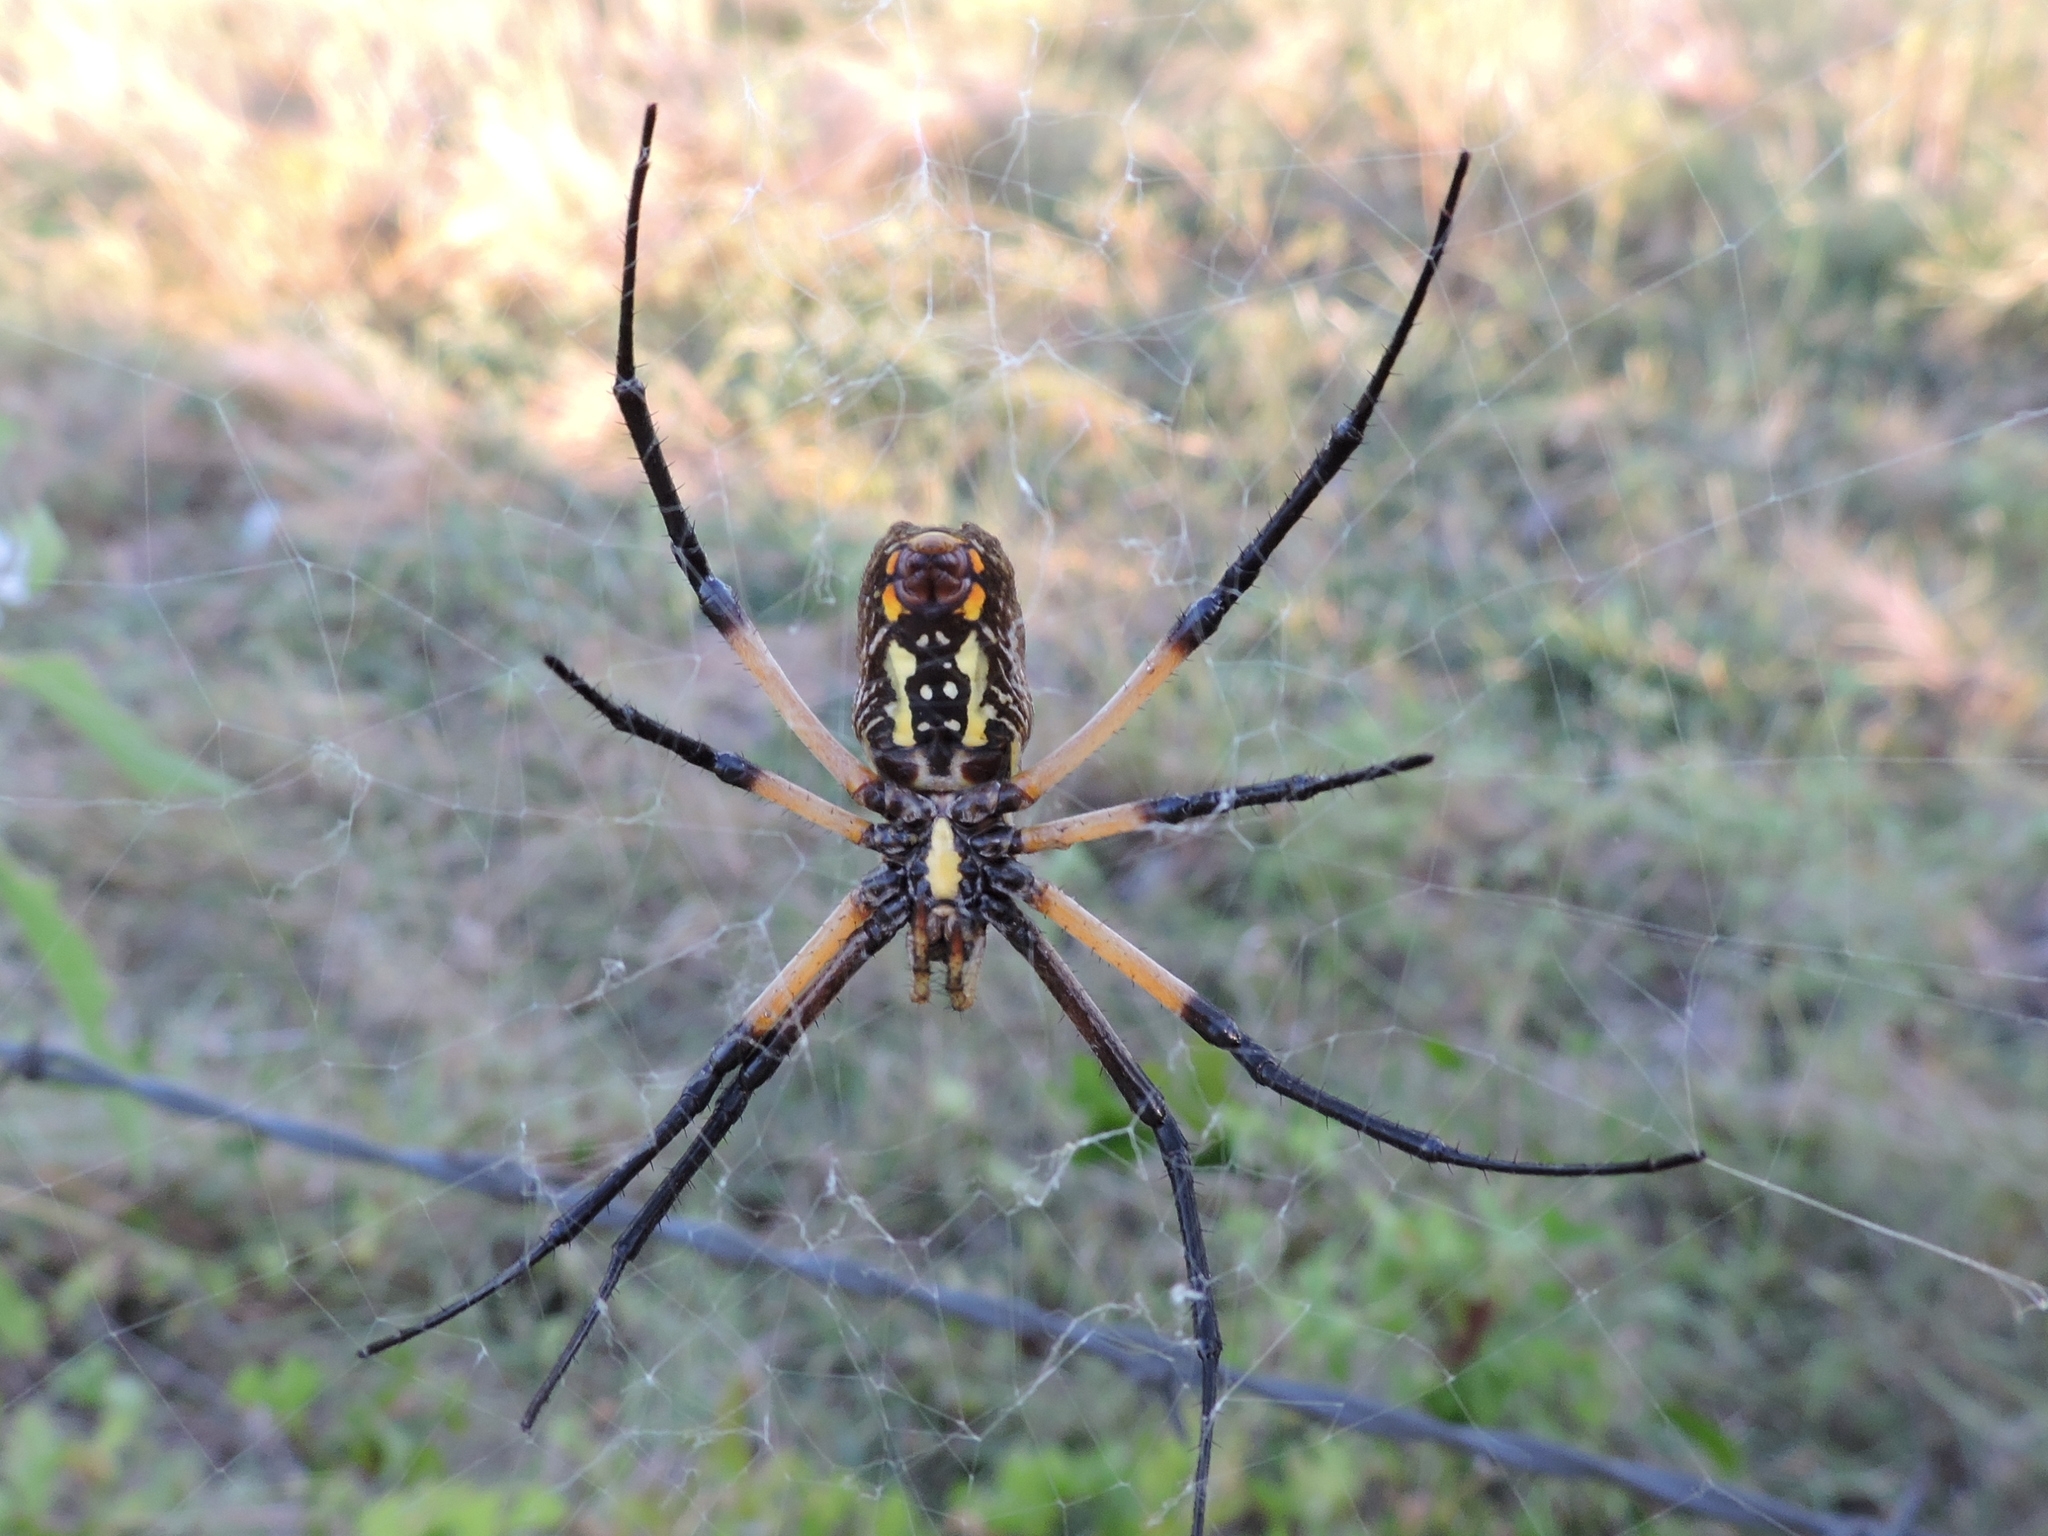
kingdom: Animalia
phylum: Arthropoda
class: Arachnida
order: Araneae
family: Araneidae
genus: Argiope
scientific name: Argiope aurantia
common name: Orb weavers
